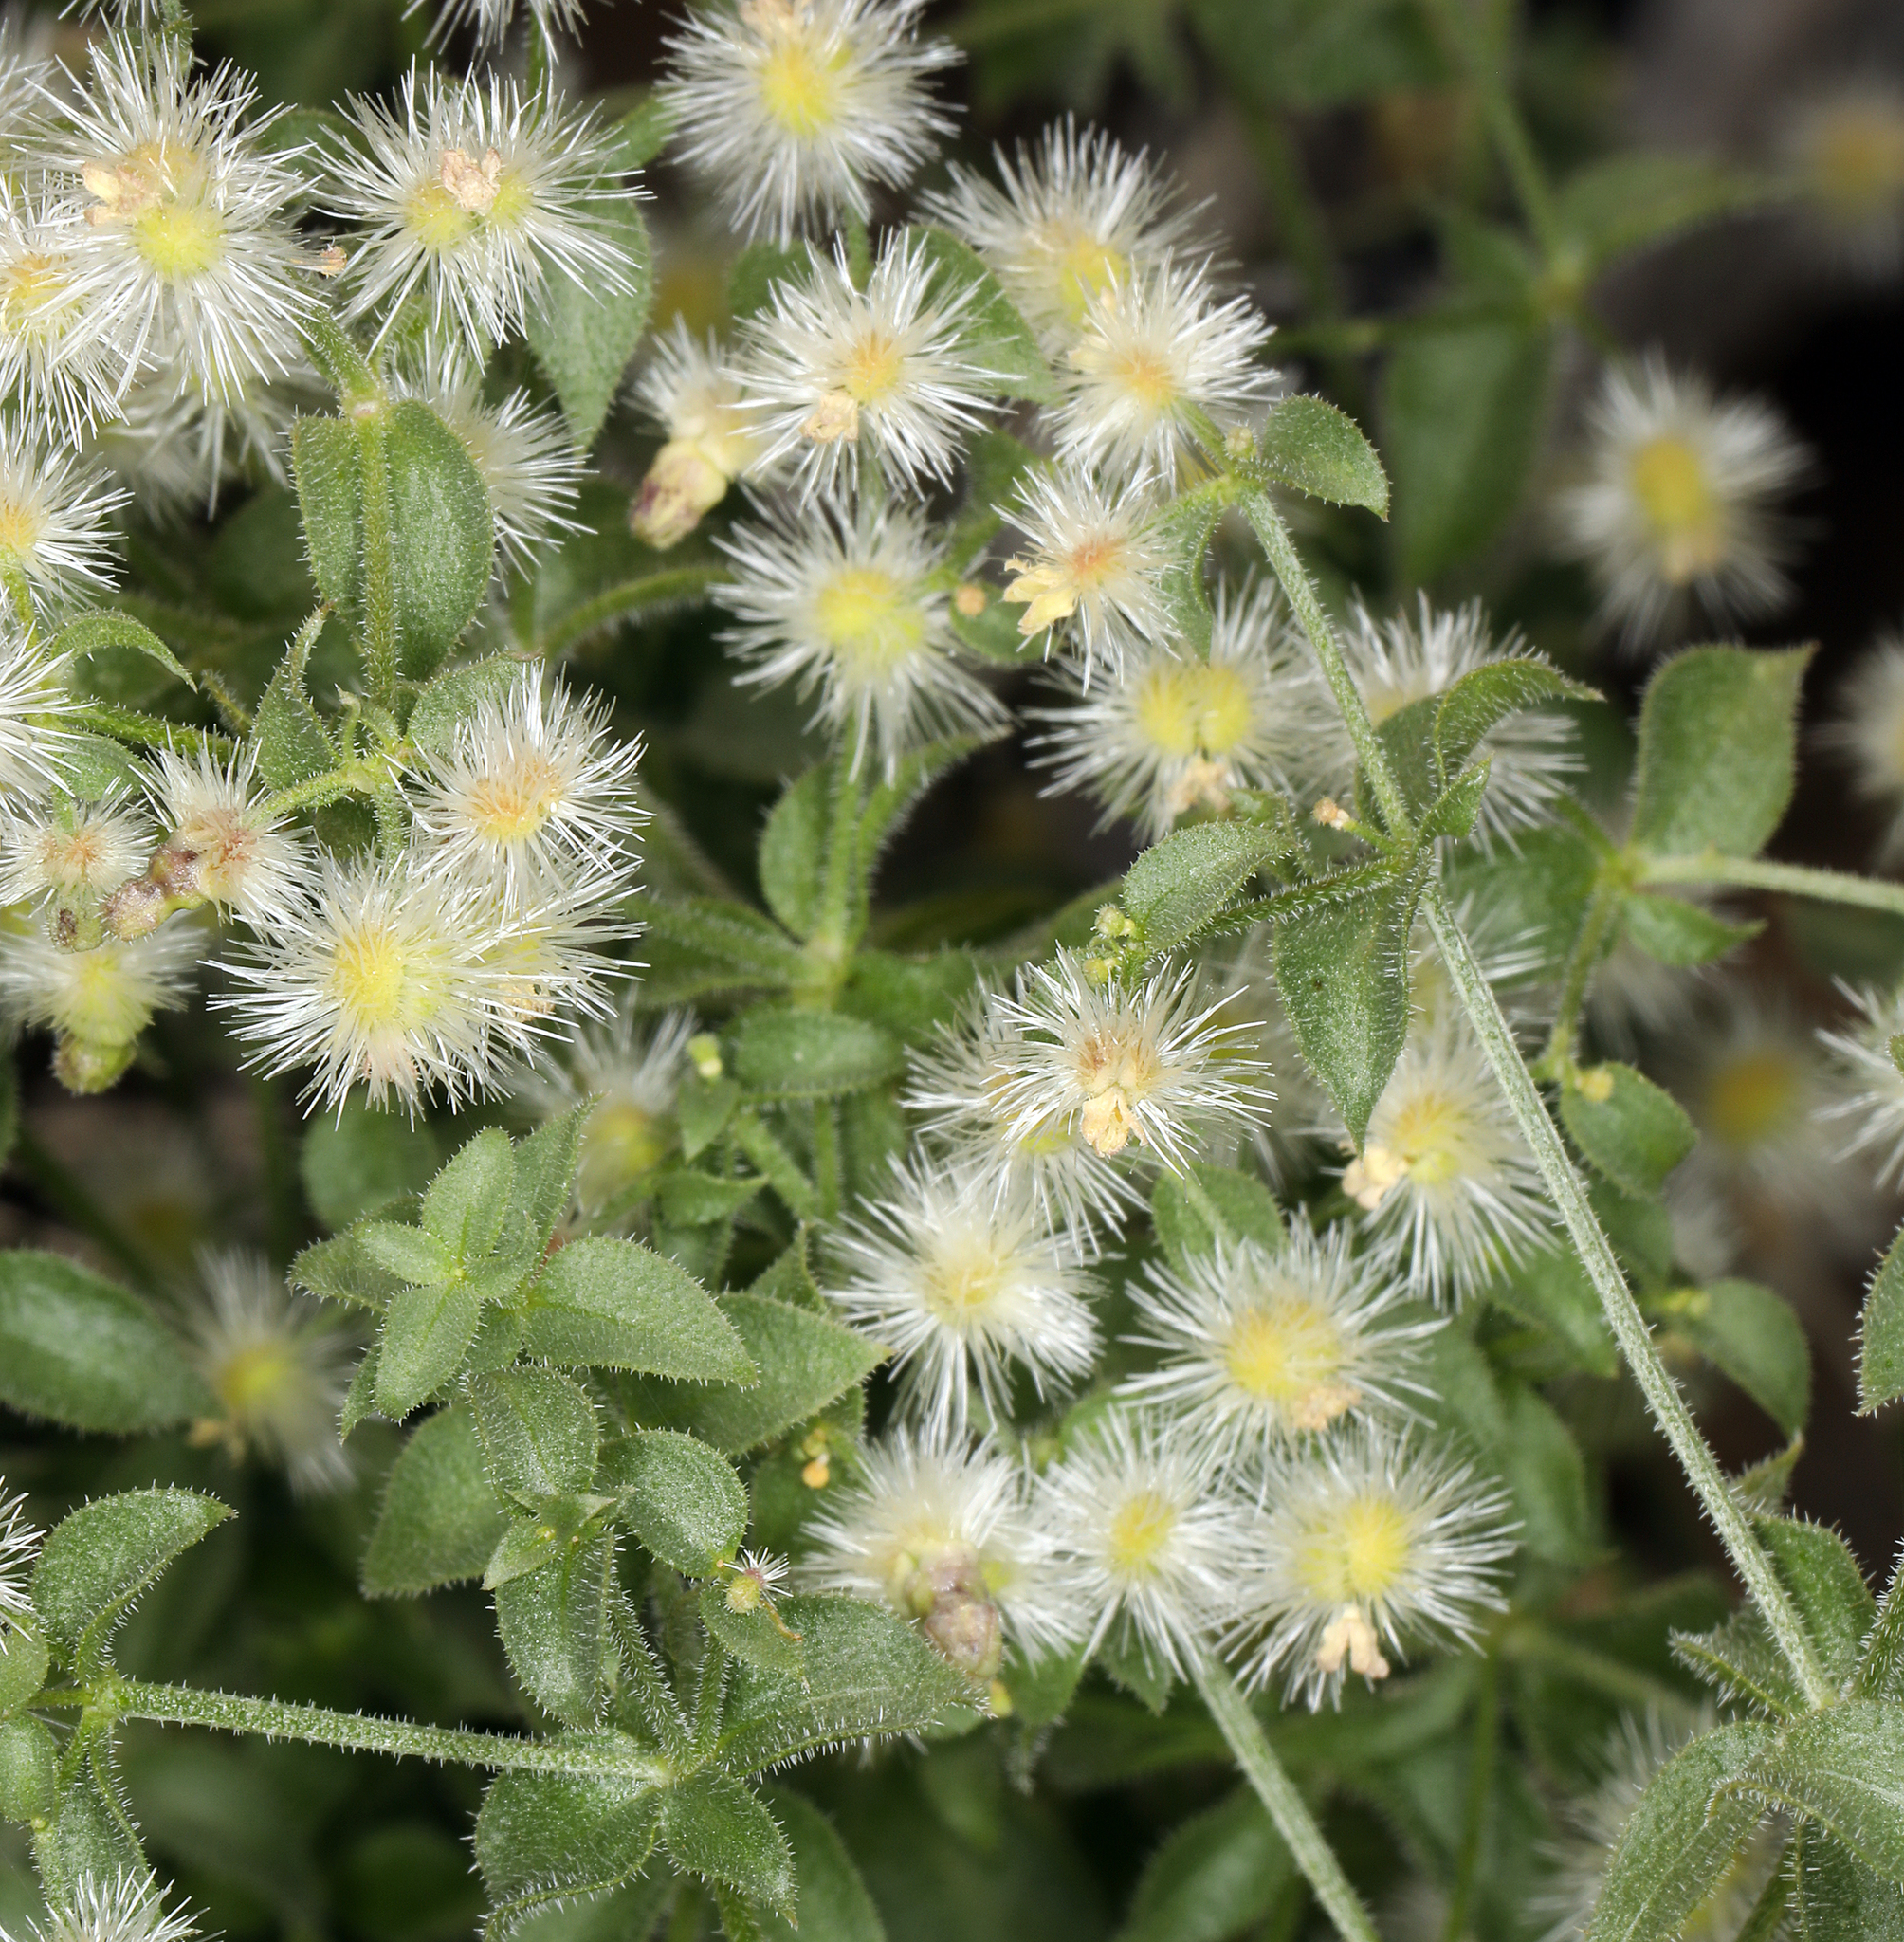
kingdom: Plantae
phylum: Tracheophyta
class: Magnoliopsida
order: Gentianales
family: Rubiaceae
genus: Galium
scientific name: Galium multiflorum
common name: Many-flowered bedstraw
